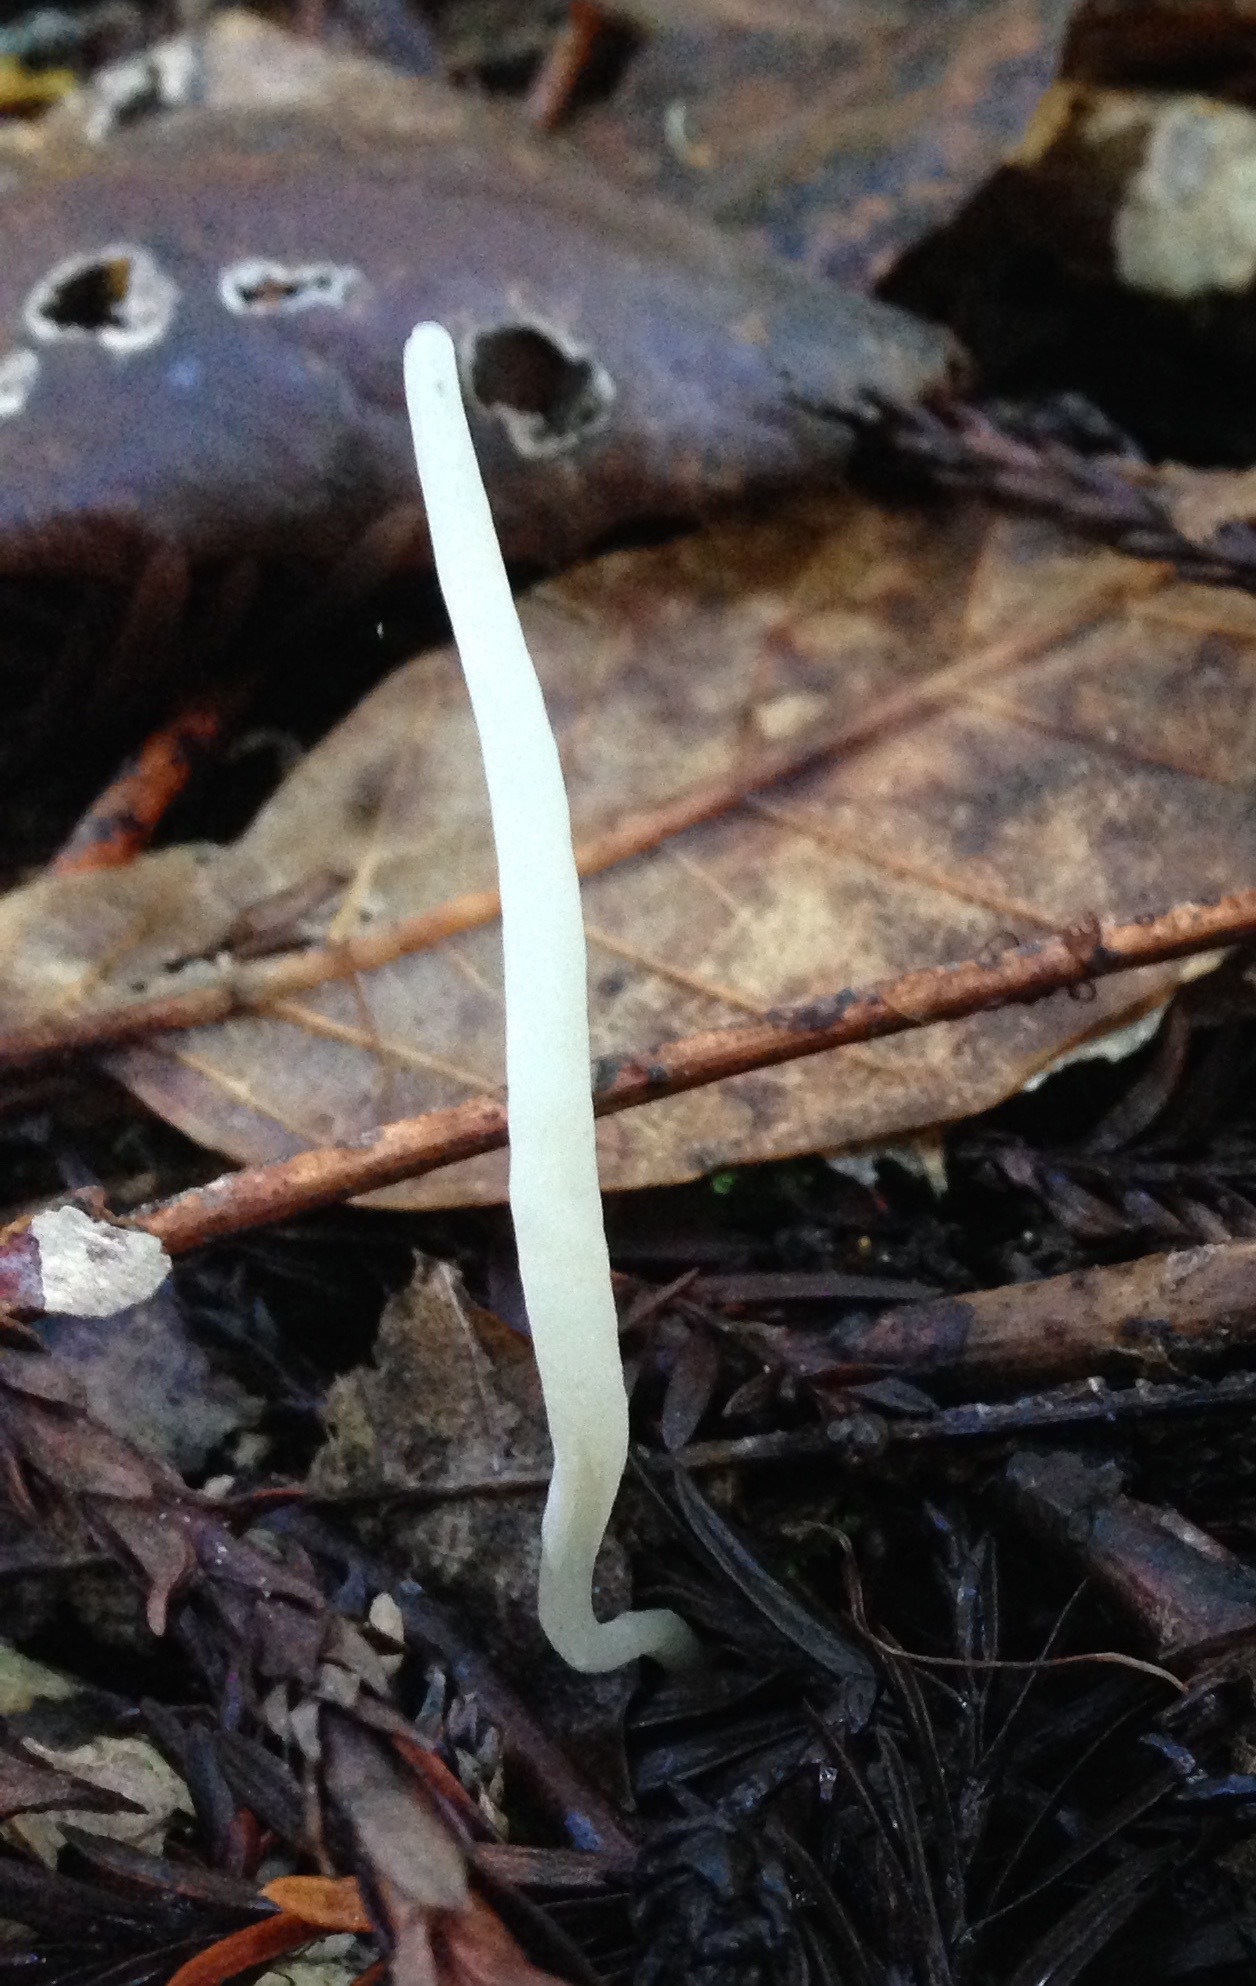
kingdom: Fungi
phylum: Basidiomycota
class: Agaricomycetes
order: Agaricales
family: Clavariaceae
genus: Clavaria
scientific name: Clavaria falcata
